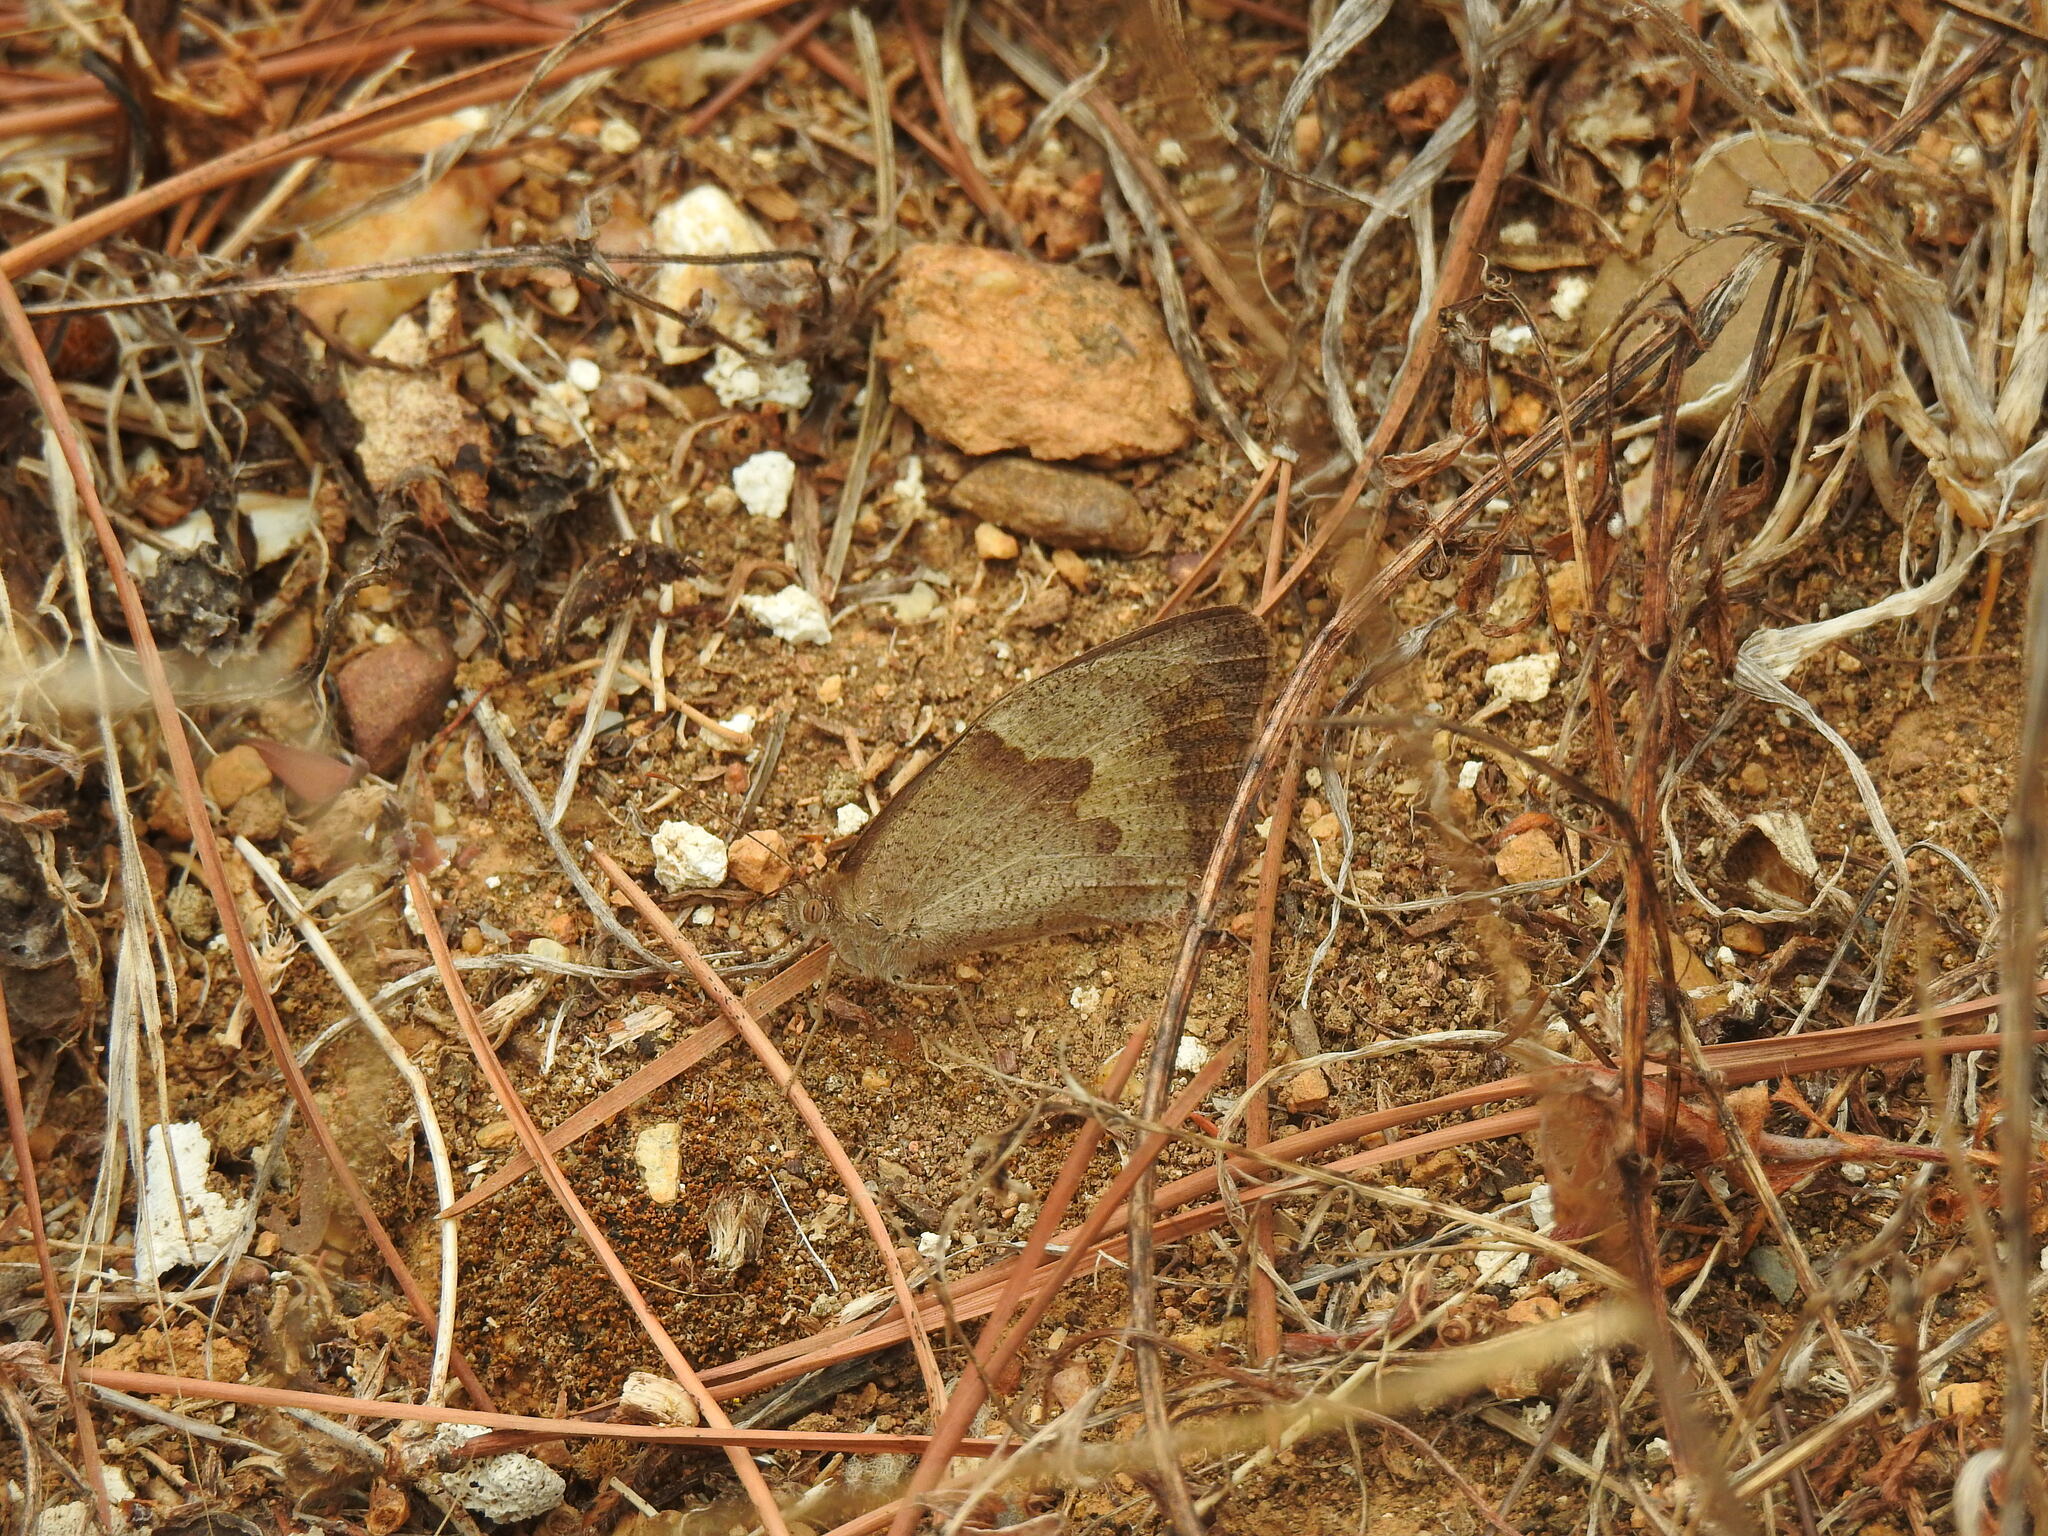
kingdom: Animalia
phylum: Arthropoda
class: Insecta
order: Lepidoptera
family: Nymphalidae
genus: Maniola
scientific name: Maniola jurtina
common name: Meadow brown
